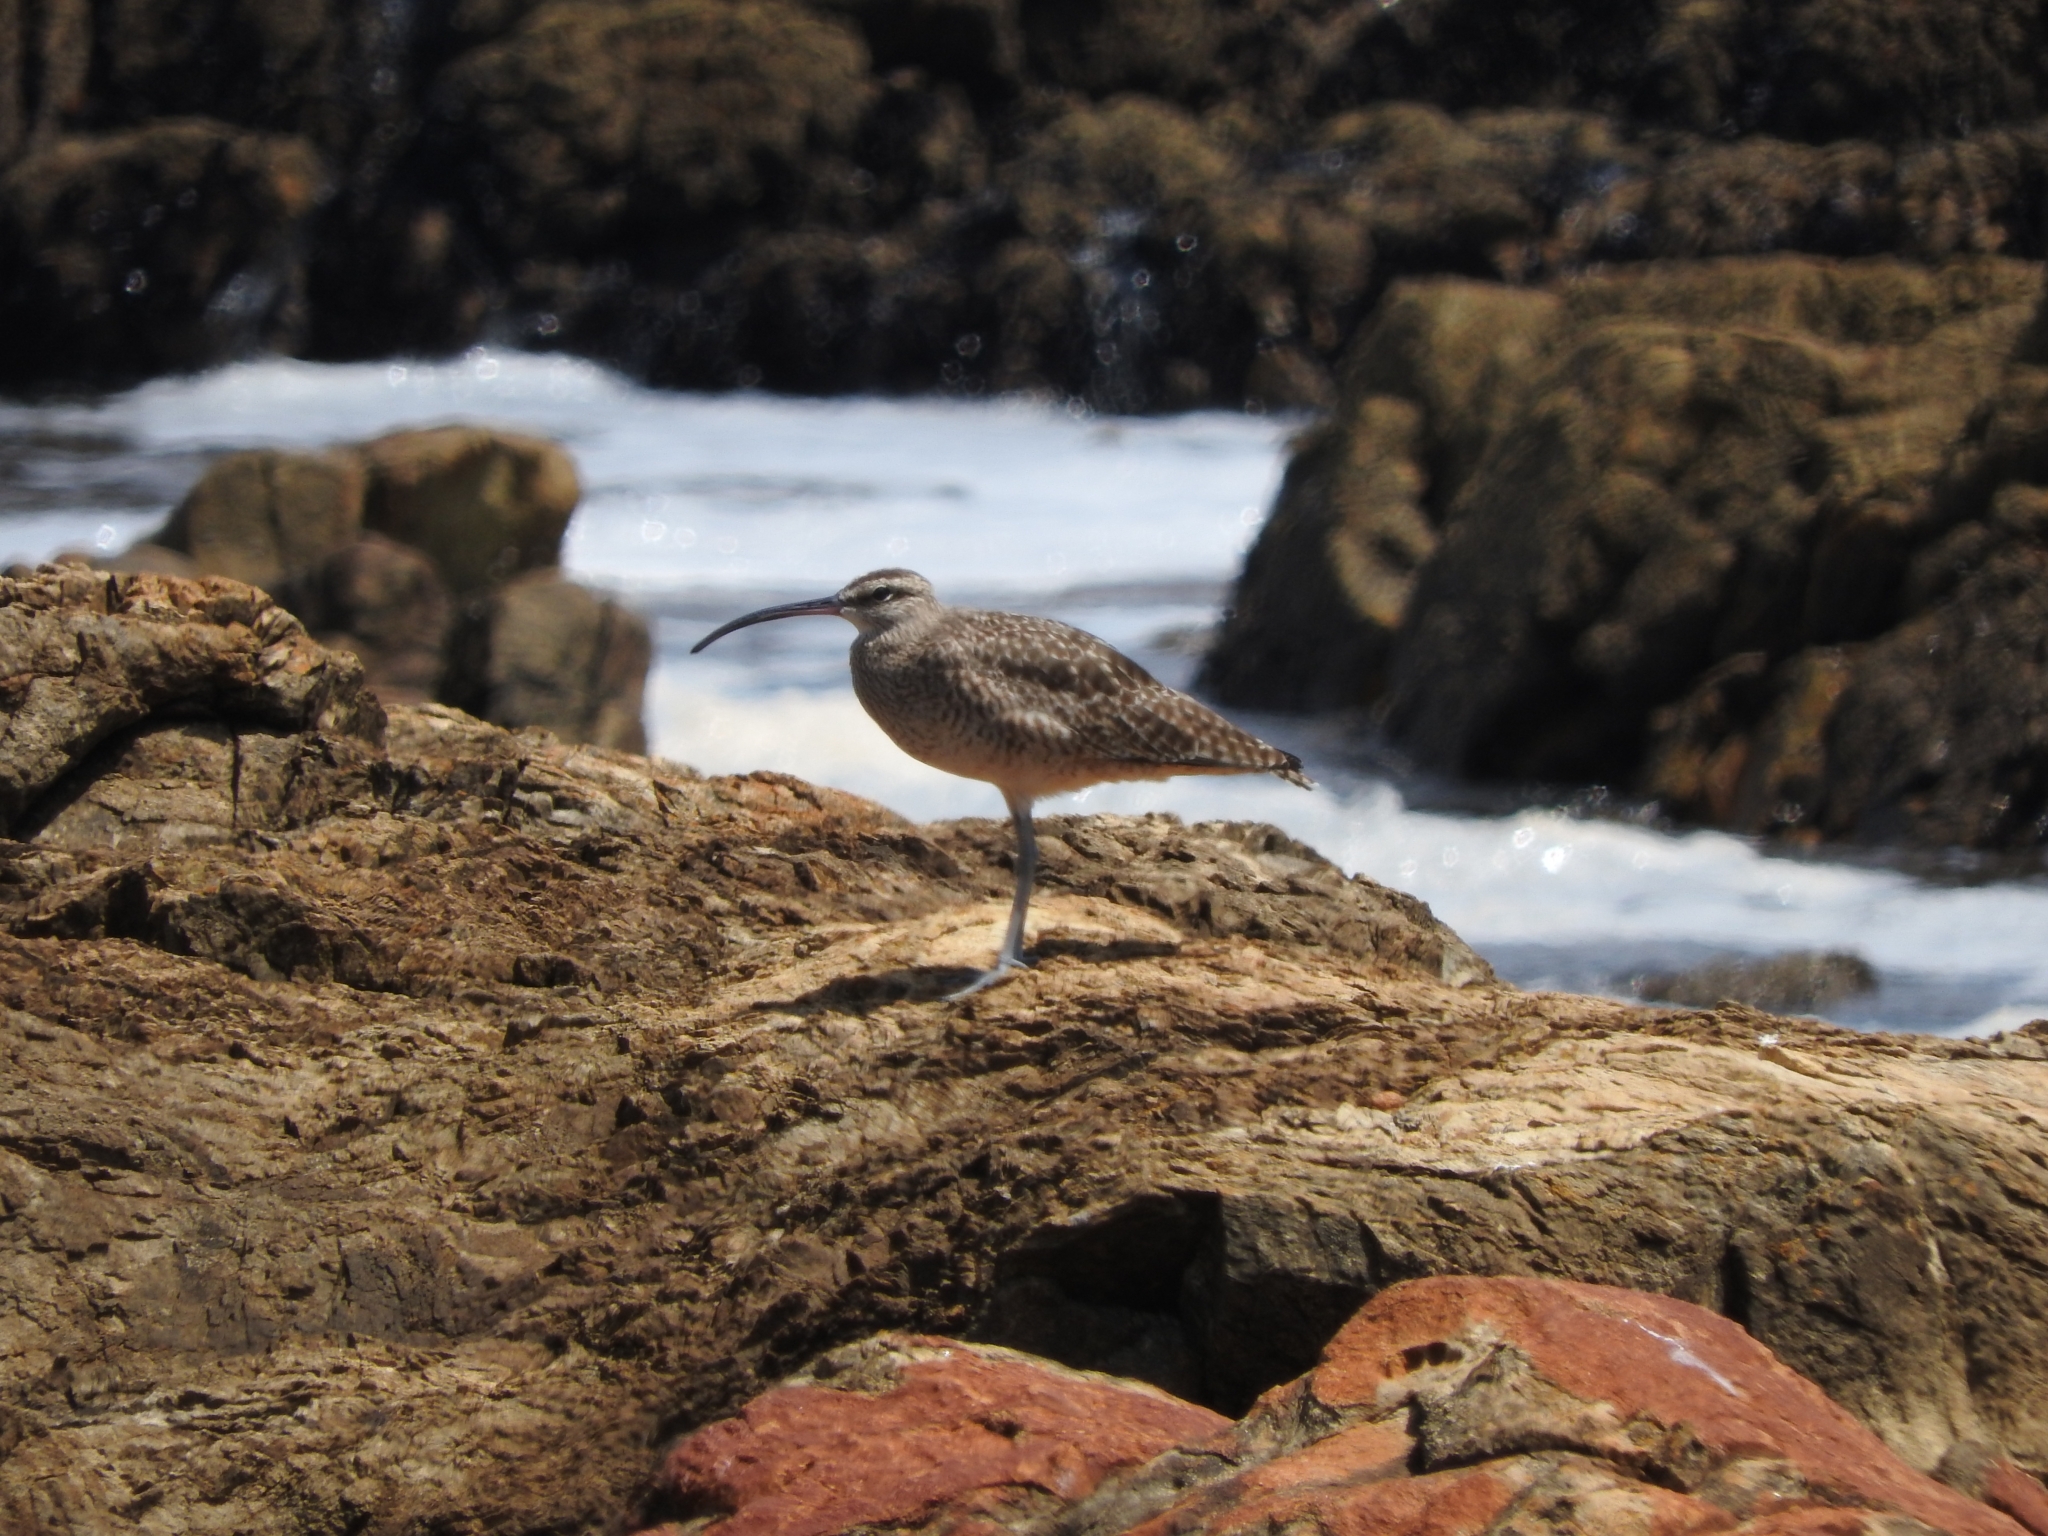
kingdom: Animalia
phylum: Chordata
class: Aves
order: Charadriiformes
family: Scolopacidae
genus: Numenius
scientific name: Numenius phaeopus
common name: Whimbrel
